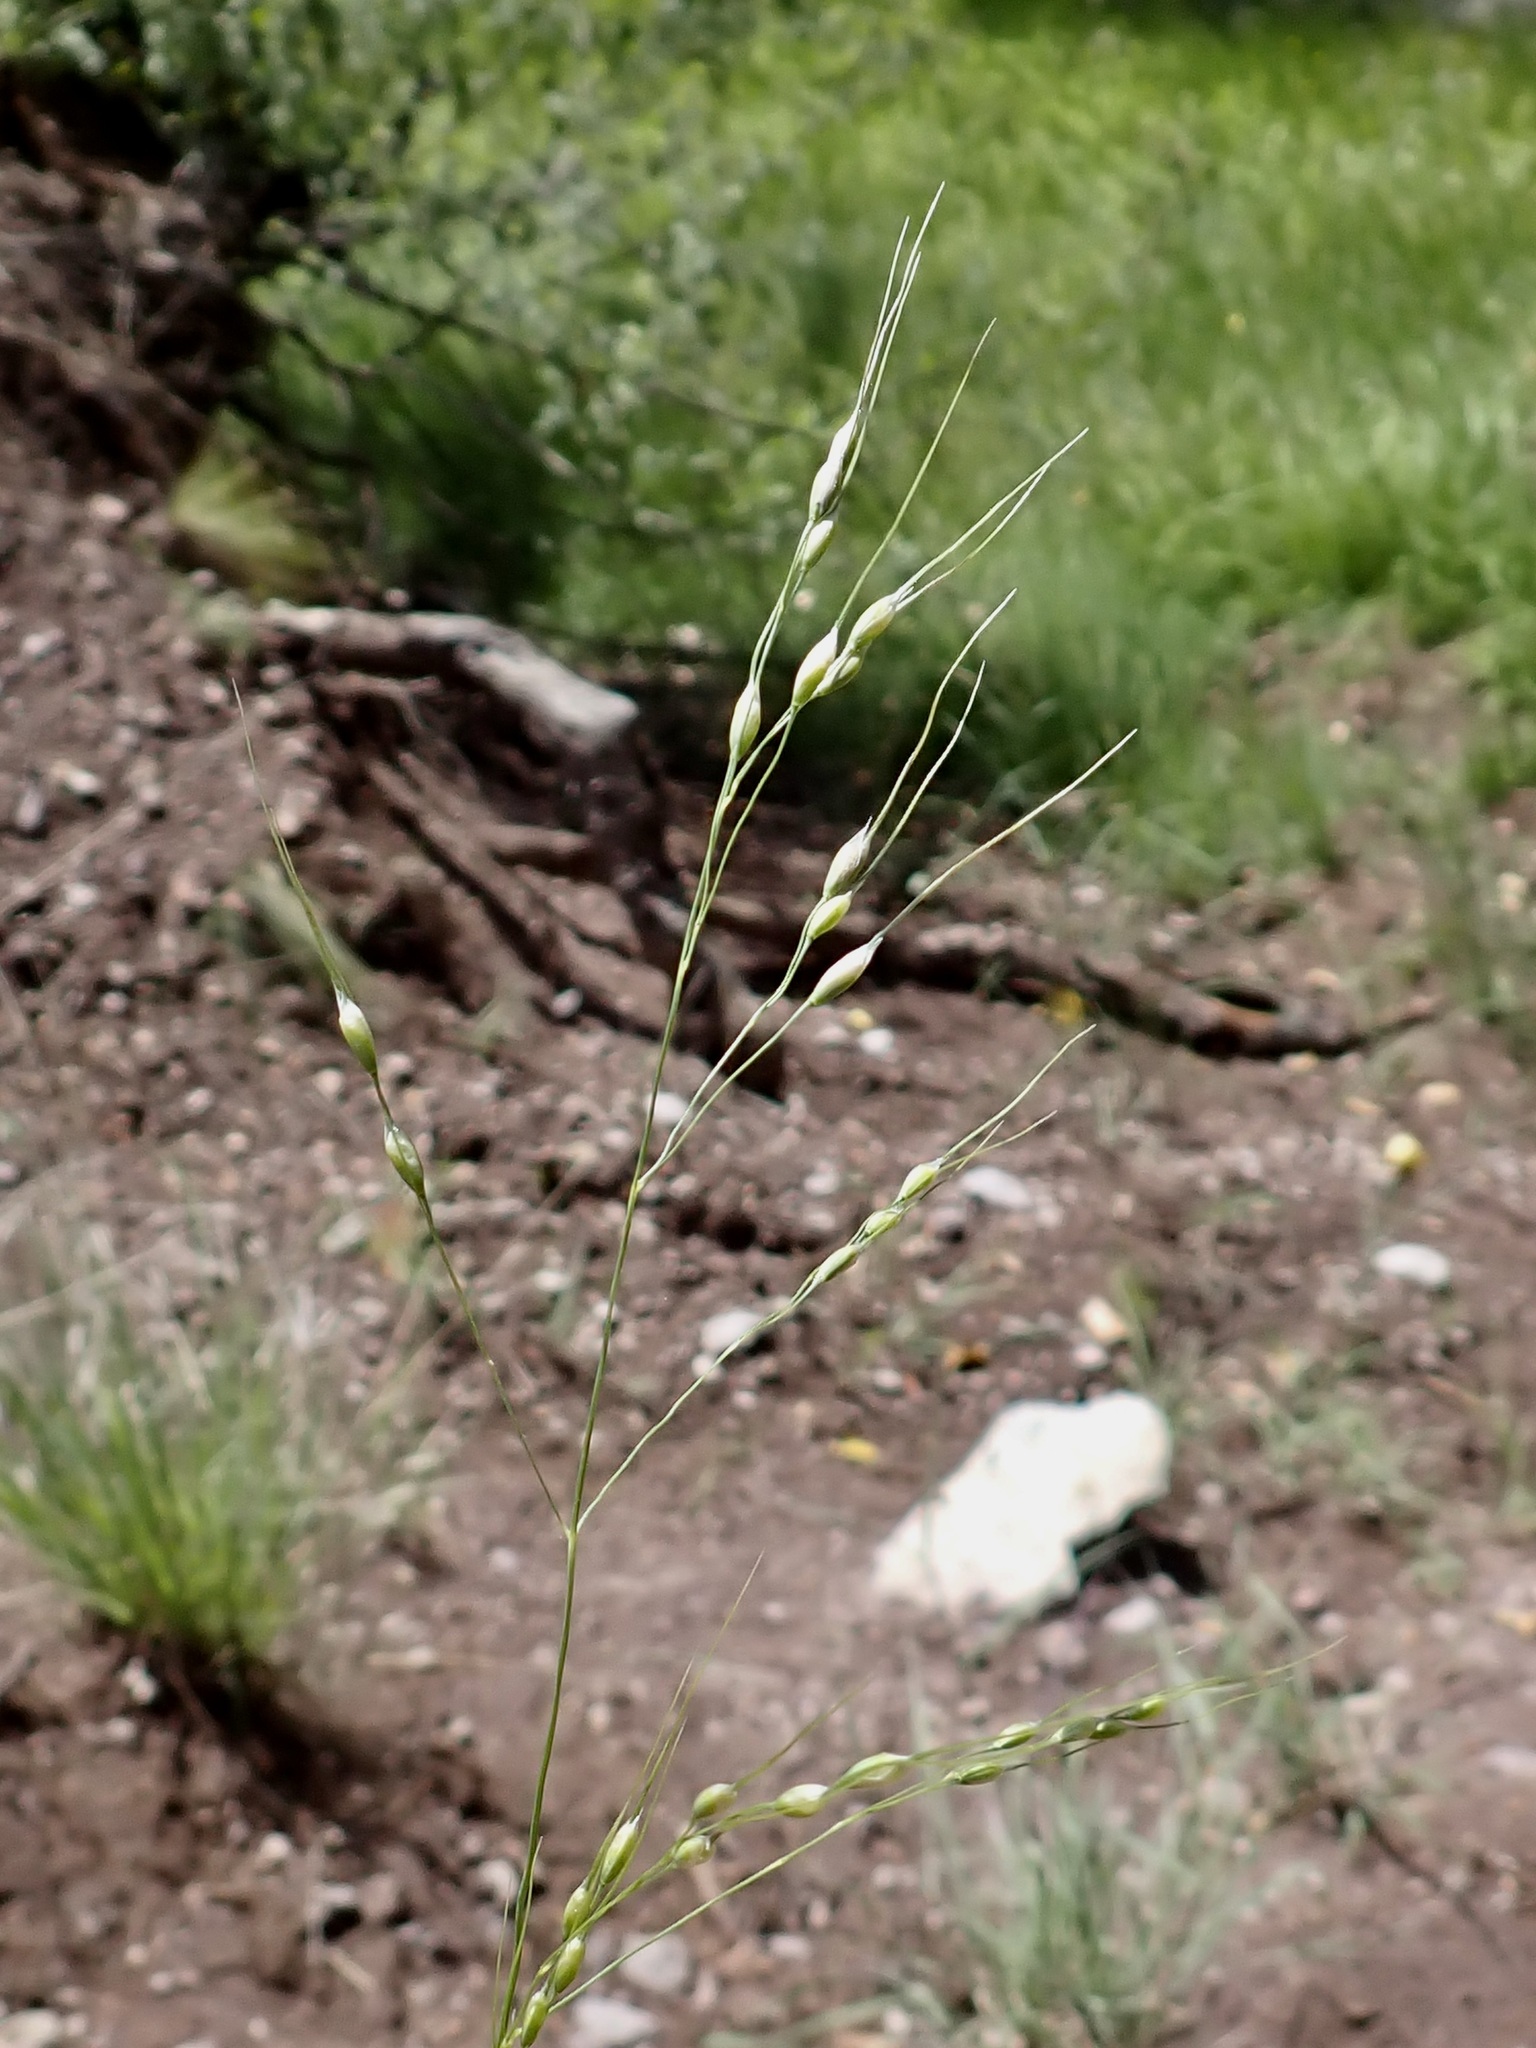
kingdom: Plantae
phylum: Tracheophyta
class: Liliopsida
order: Poales
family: Poaceae
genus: Piptochaetium
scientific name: Piptochaetium fimbriatum
